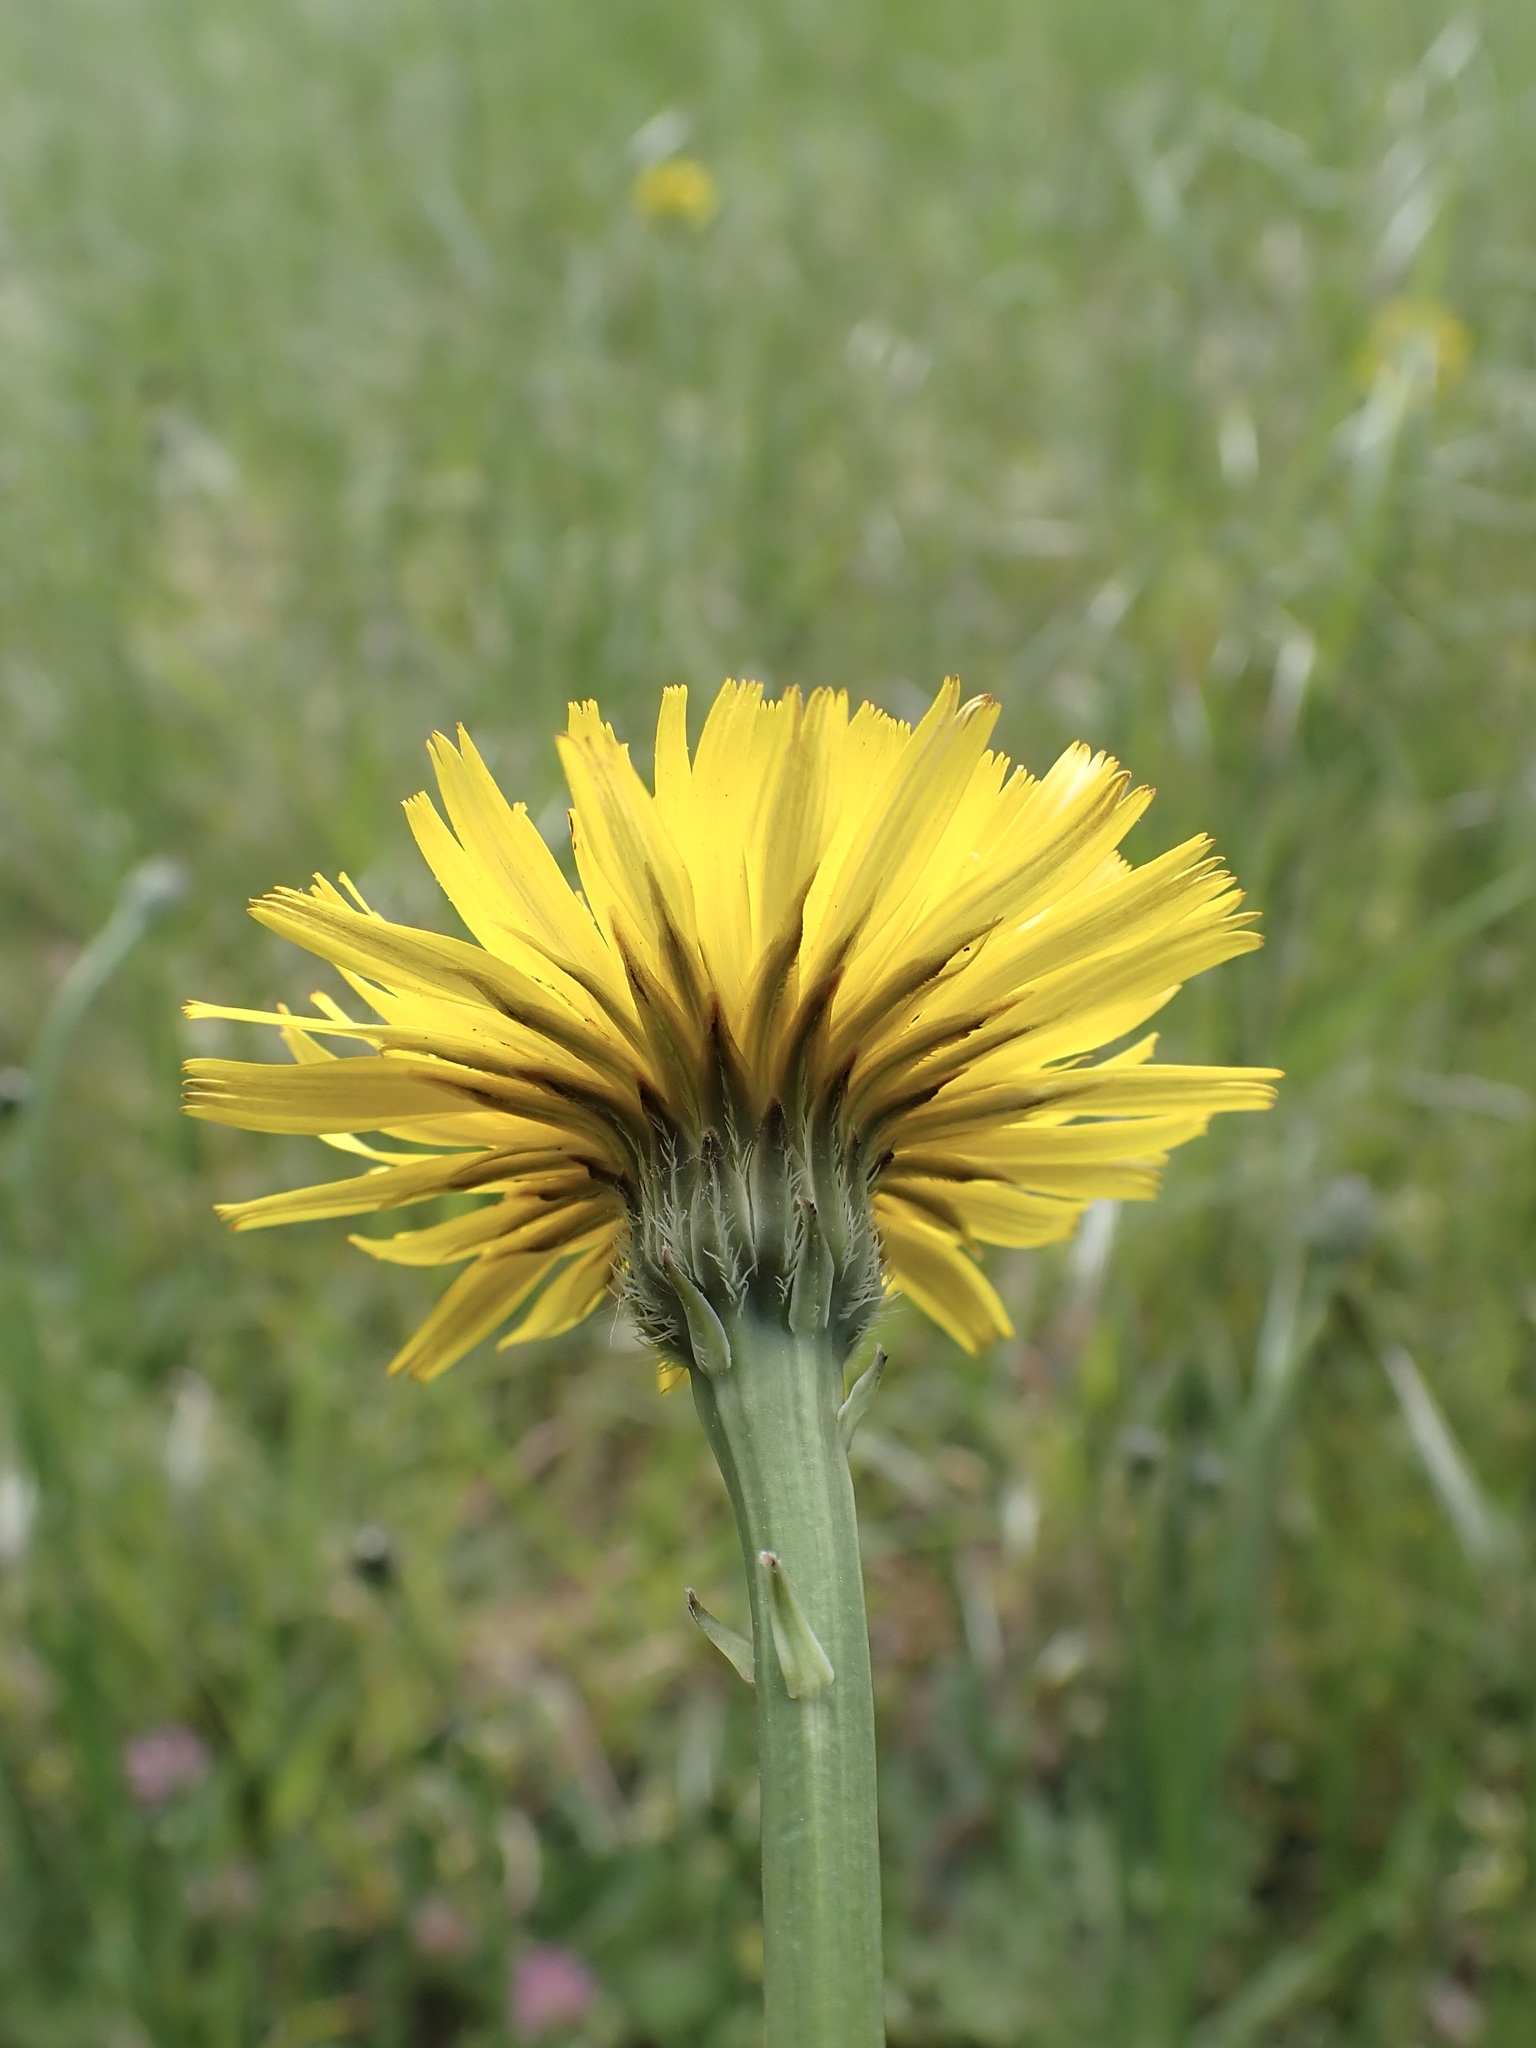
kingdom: Plantae
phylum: Tracheophyta
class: Magnoliopsida
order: Asterales
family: Asteraceae
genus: Hypochaeris
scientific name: Hypochaeris radicata
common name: Flatweed
